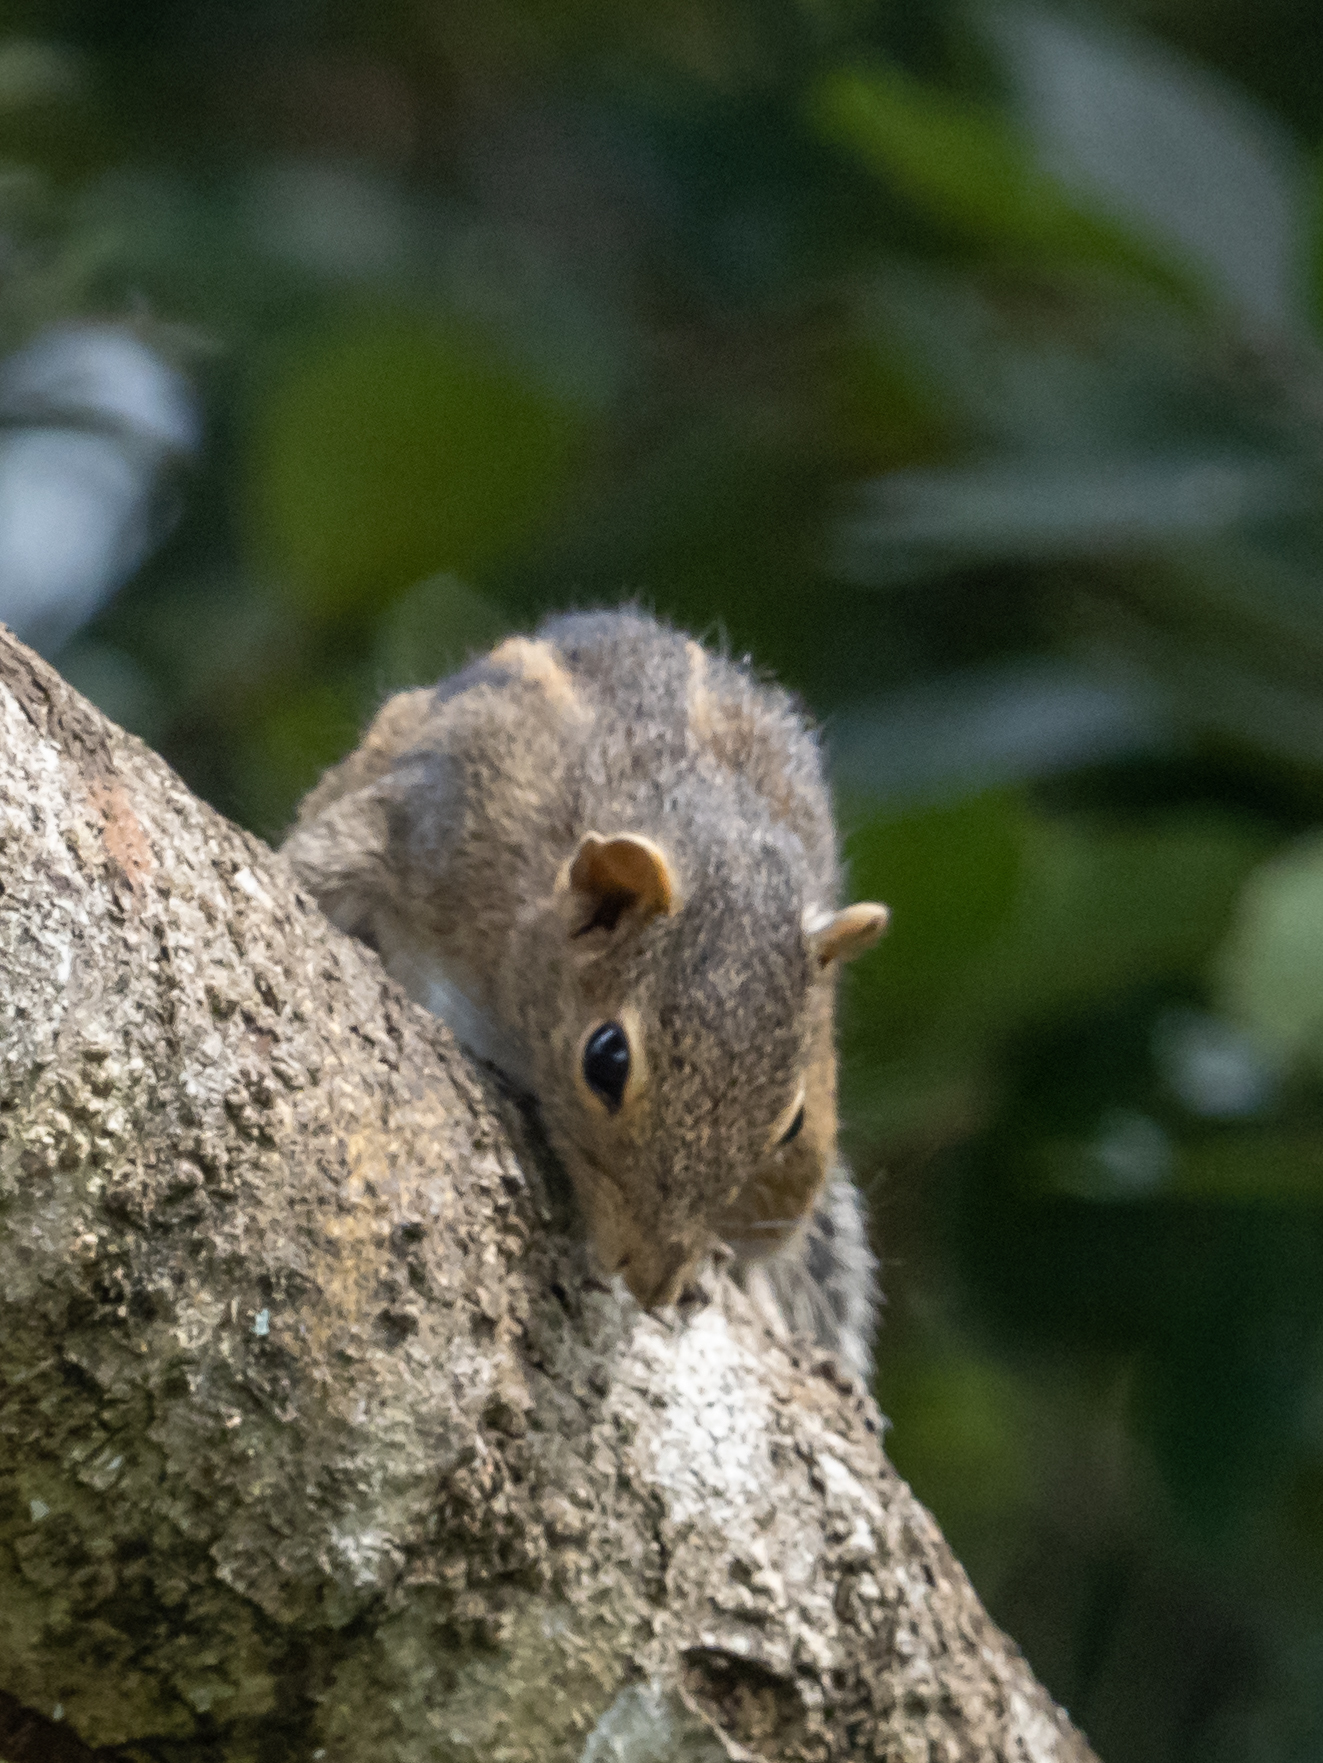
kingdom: Animalia
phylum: Chordata
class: Mammalia
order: Rodentia
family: Sciuridae
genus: Funambulus
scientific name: Funambulus palmarum
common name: Indian palm squirrel
